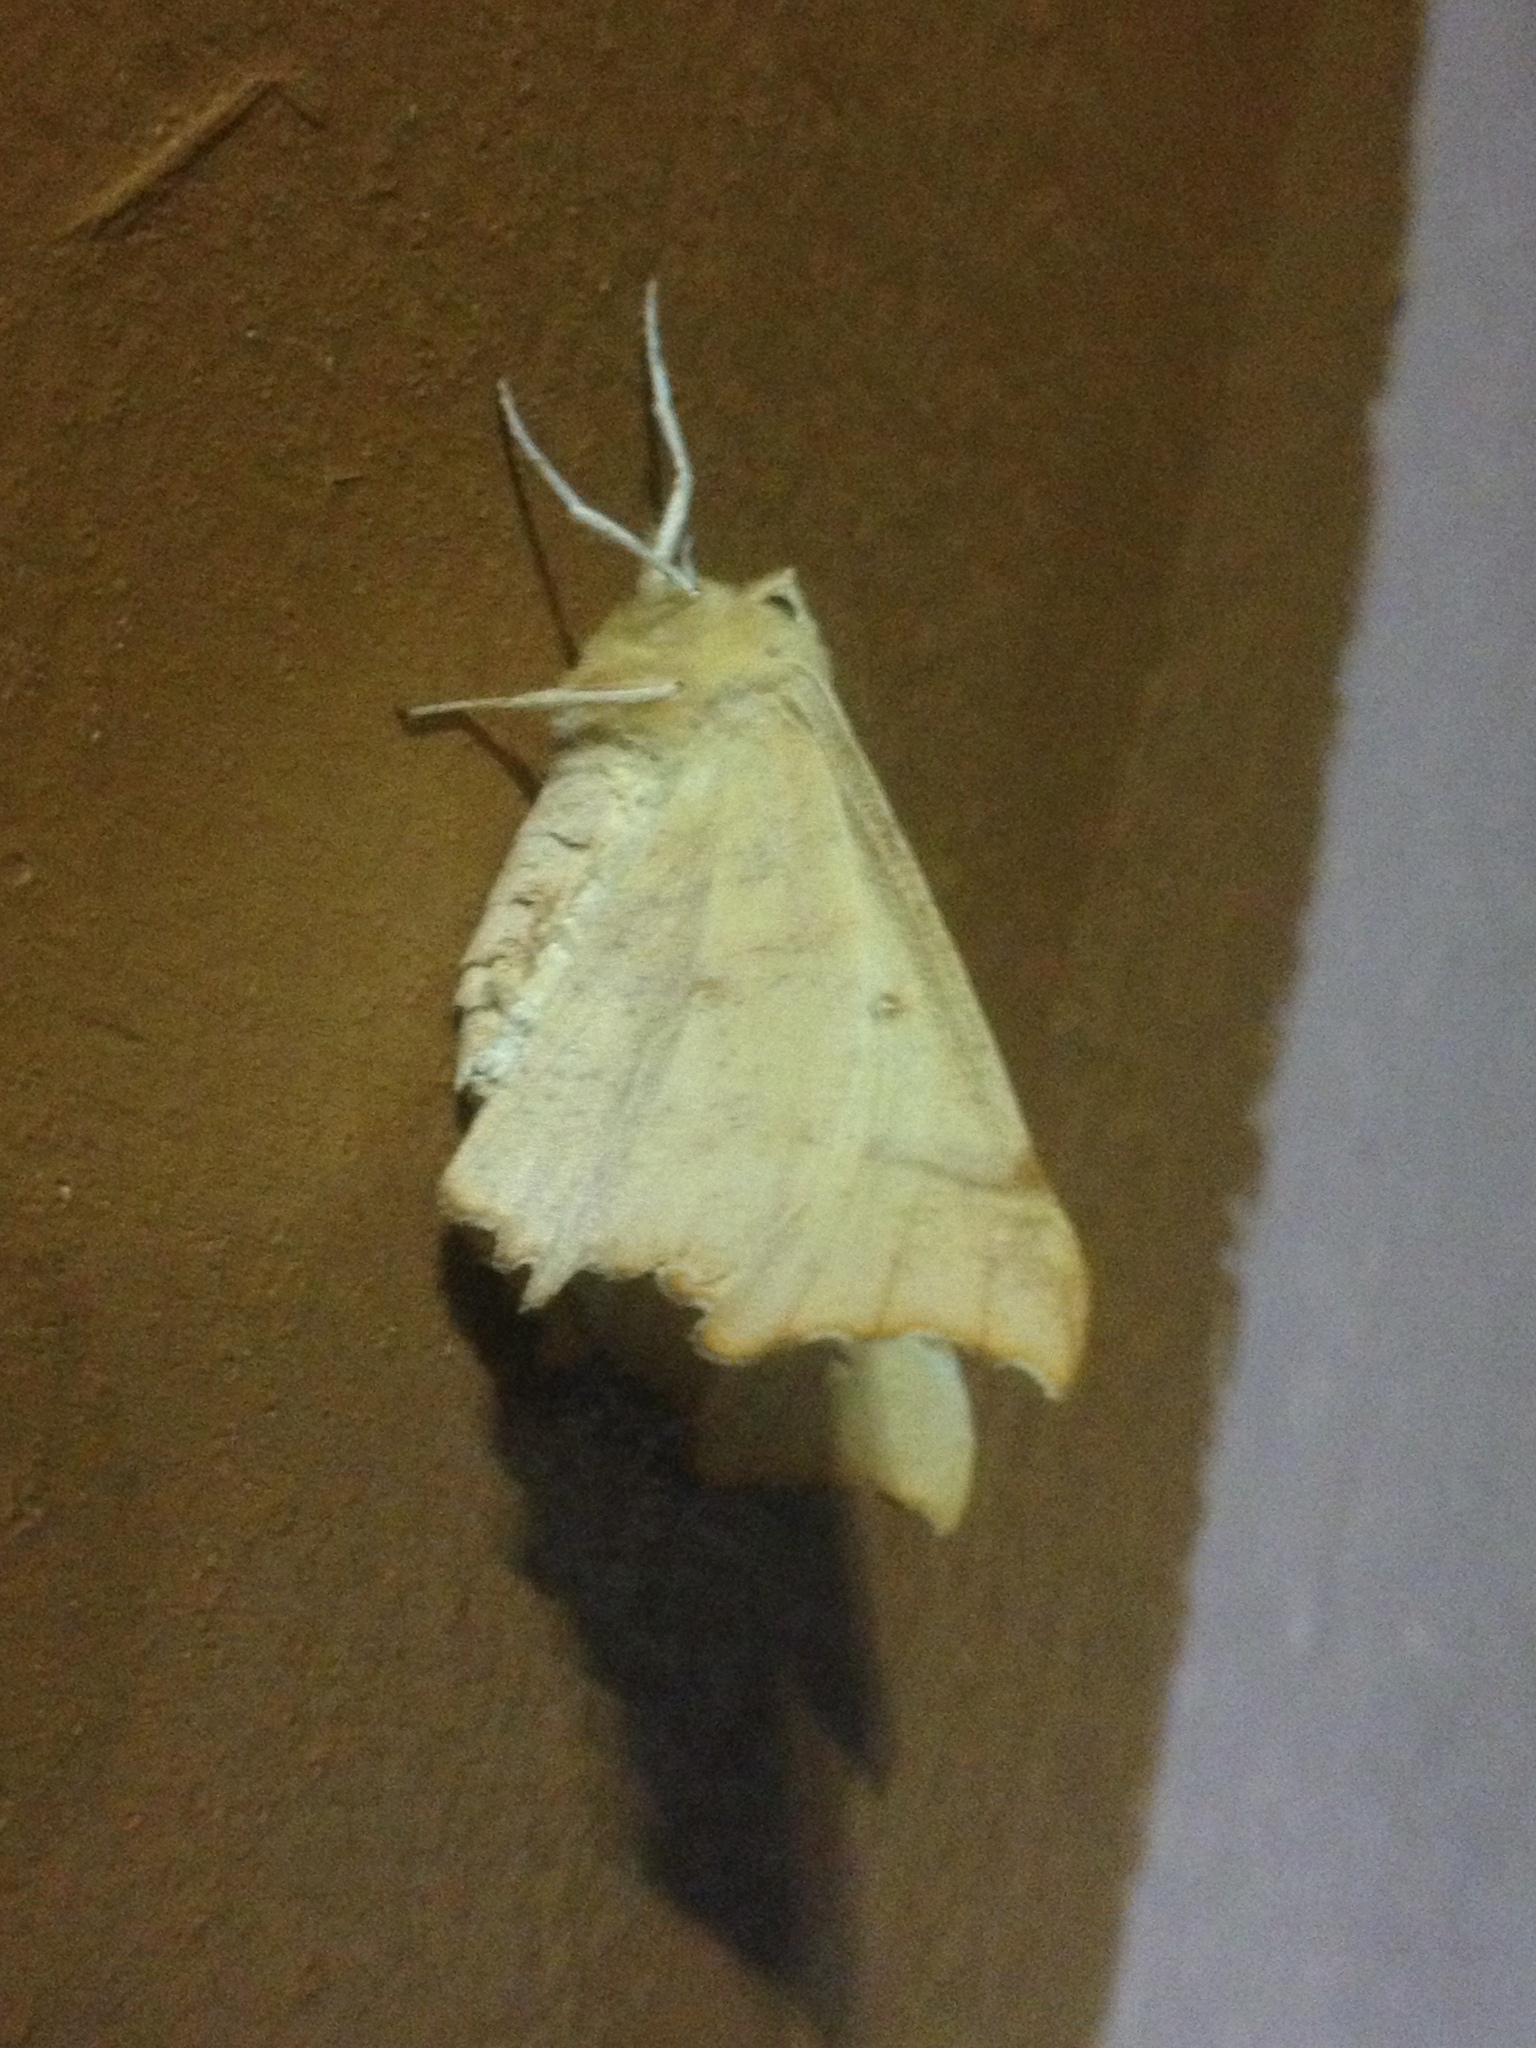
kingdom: Animalia
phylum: Arthropoda
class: Insecta
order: Lepidoptera
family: Geometridae
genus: Ennomos
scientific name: Ennomos autumnaria
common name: Large thorn
